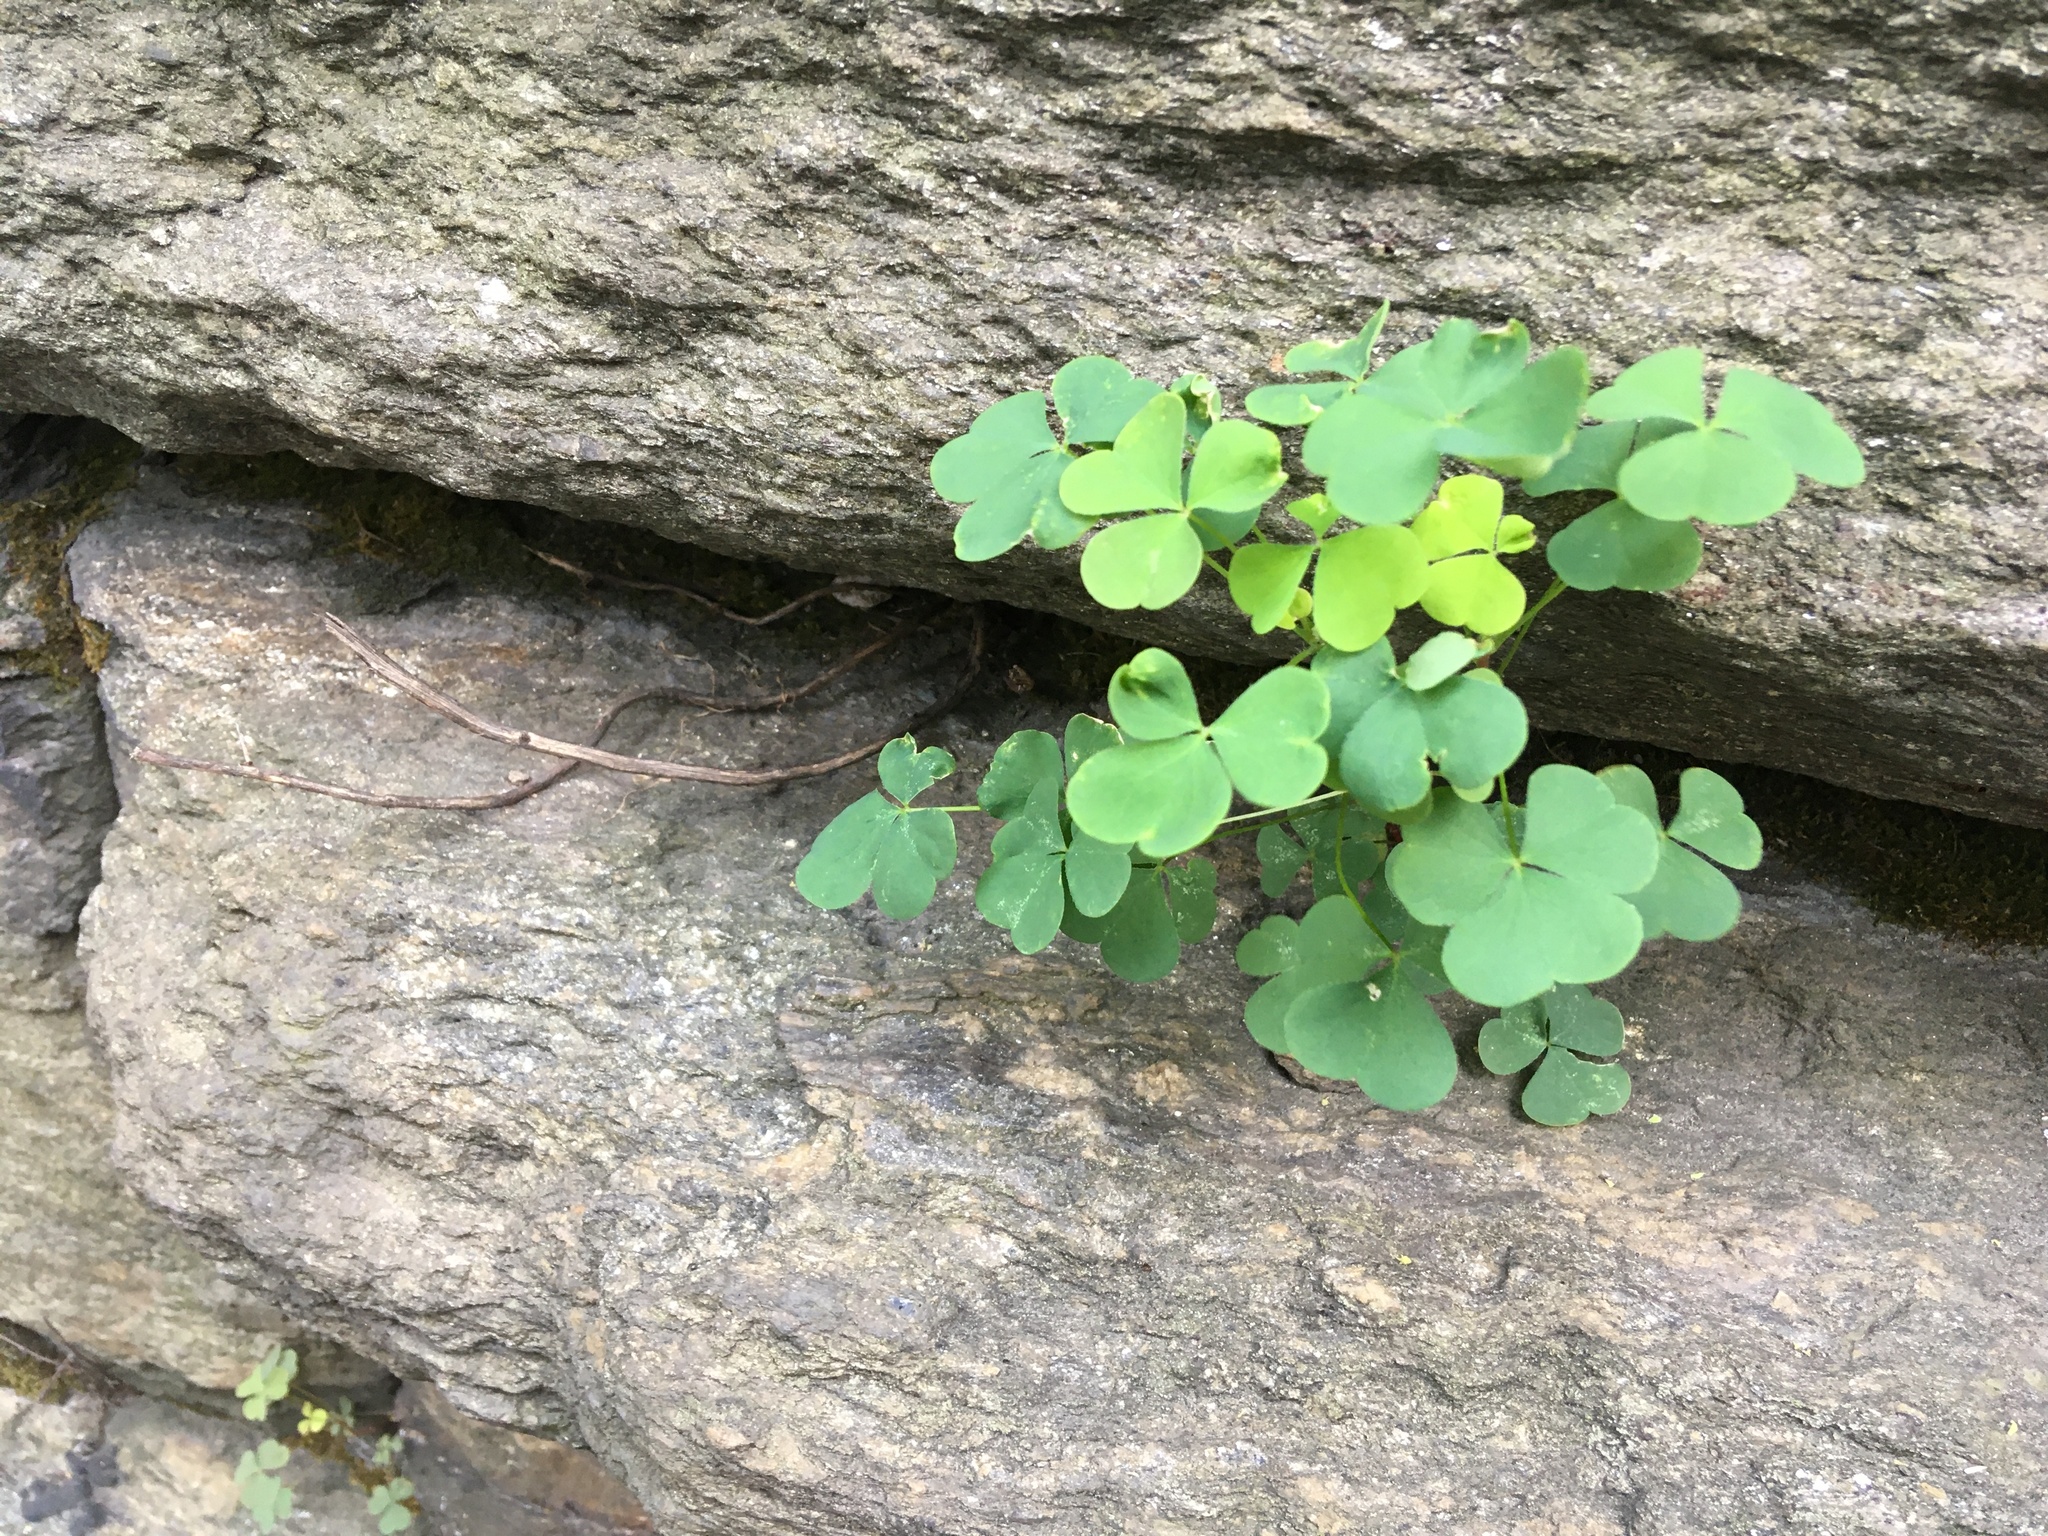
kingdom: Plantae
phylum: Tracheophyta
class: Magnoliopsida
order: Oxalidales
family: Oxalidaceae
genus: Oxalis
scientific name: Oxalis corniculata
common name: Procumbent yellow-sorrel
